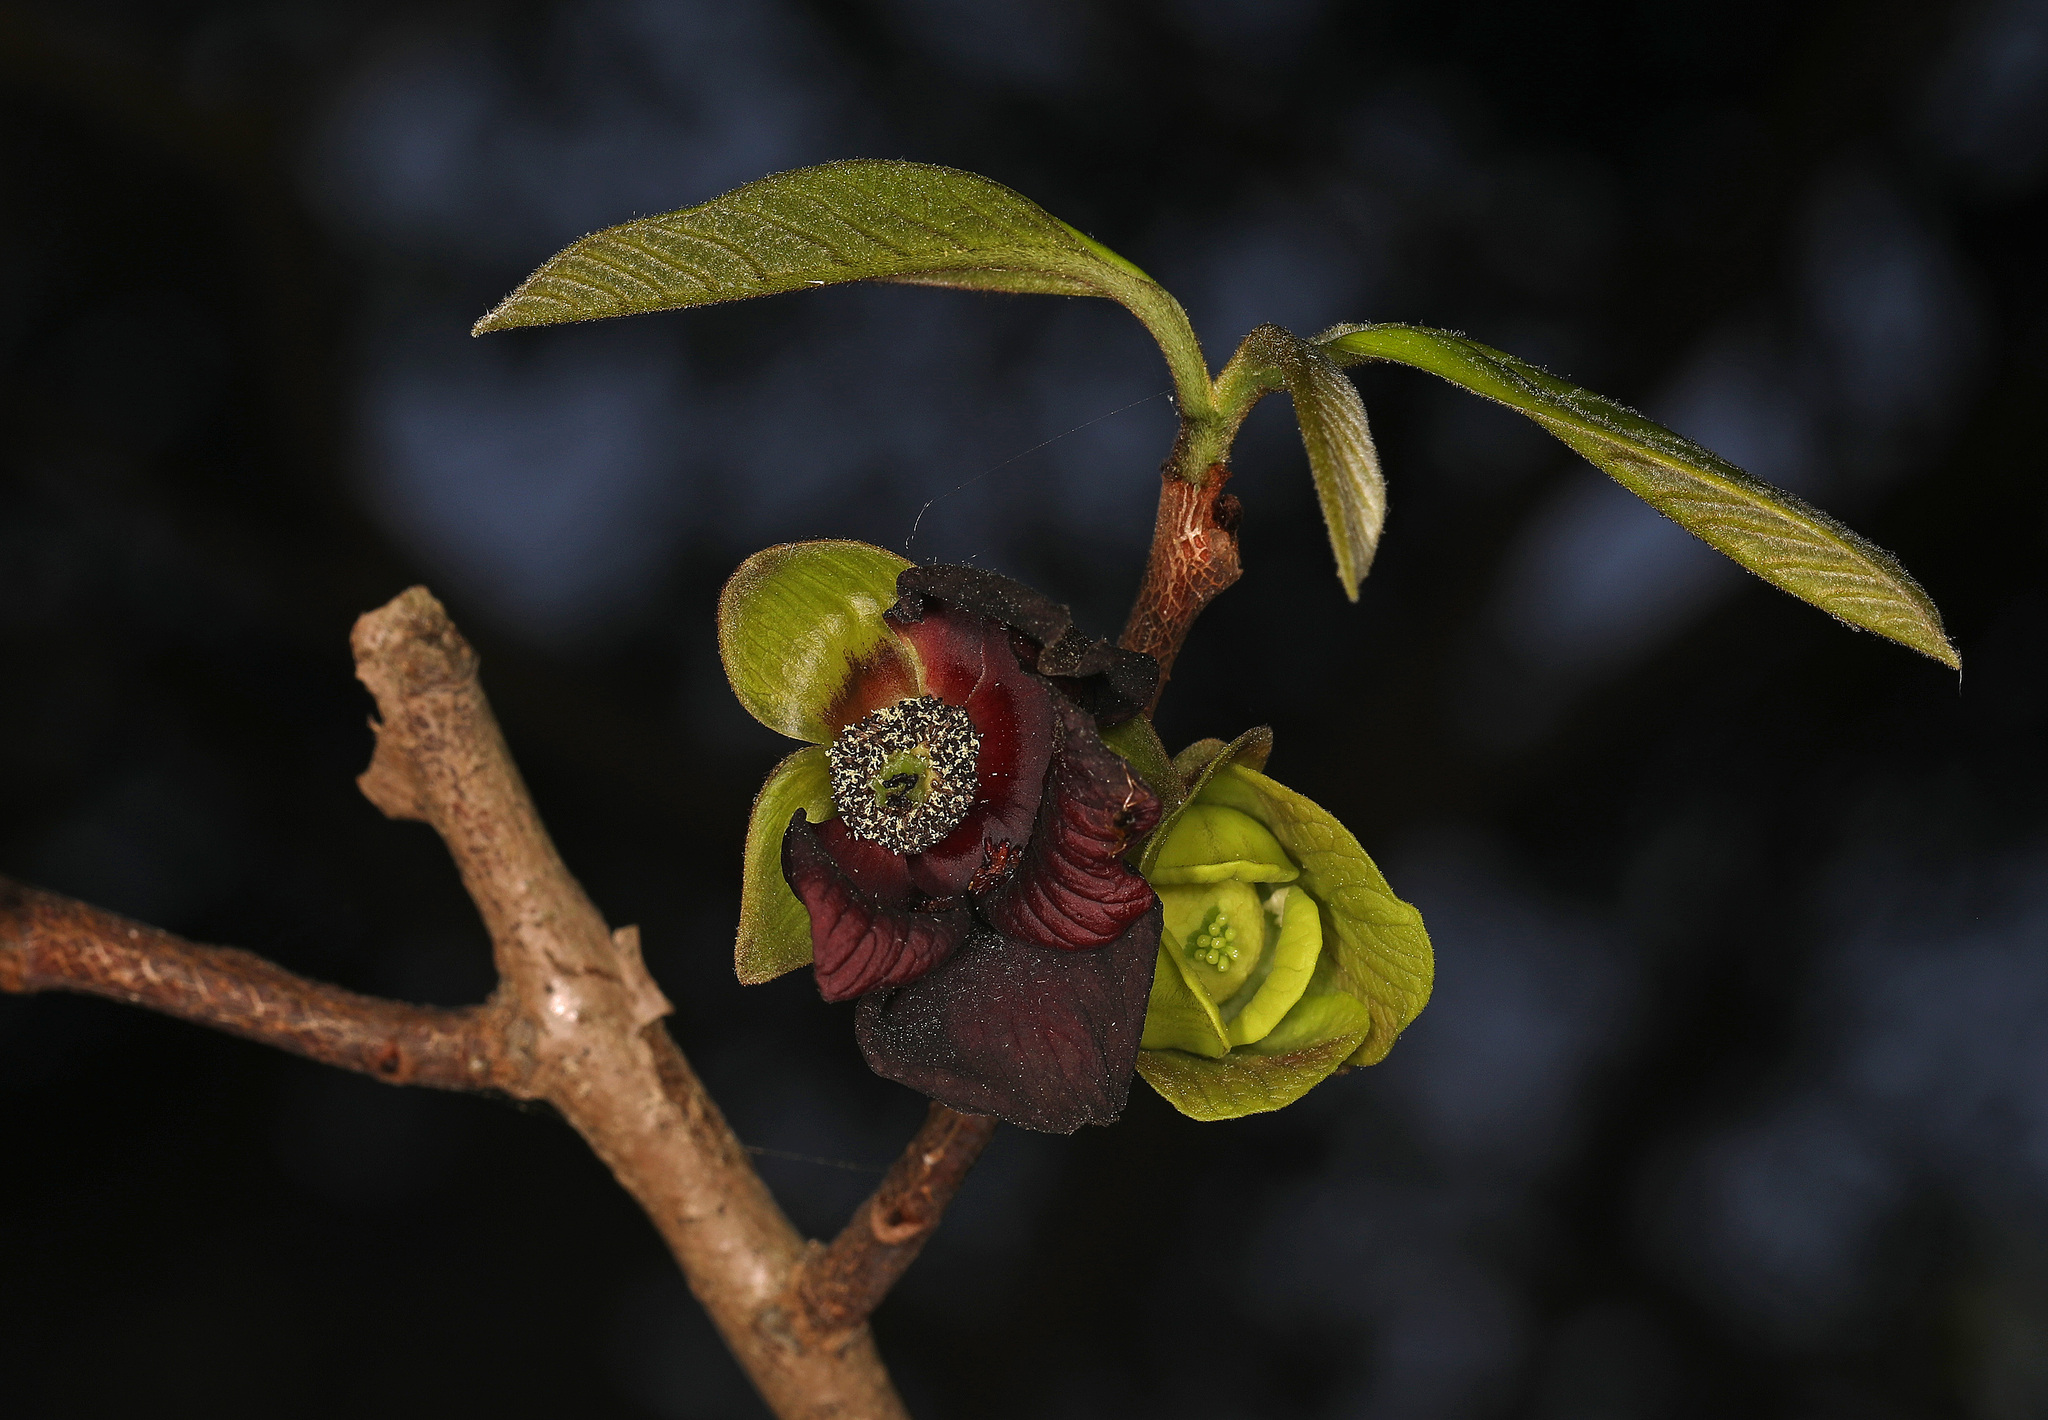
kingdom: Plantae
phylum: Tracheophyta
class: Magnoliopsida
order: Magnoliales
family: Annonaceae
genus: Asimina
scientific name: Asimina triloba
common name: Dog-banana
